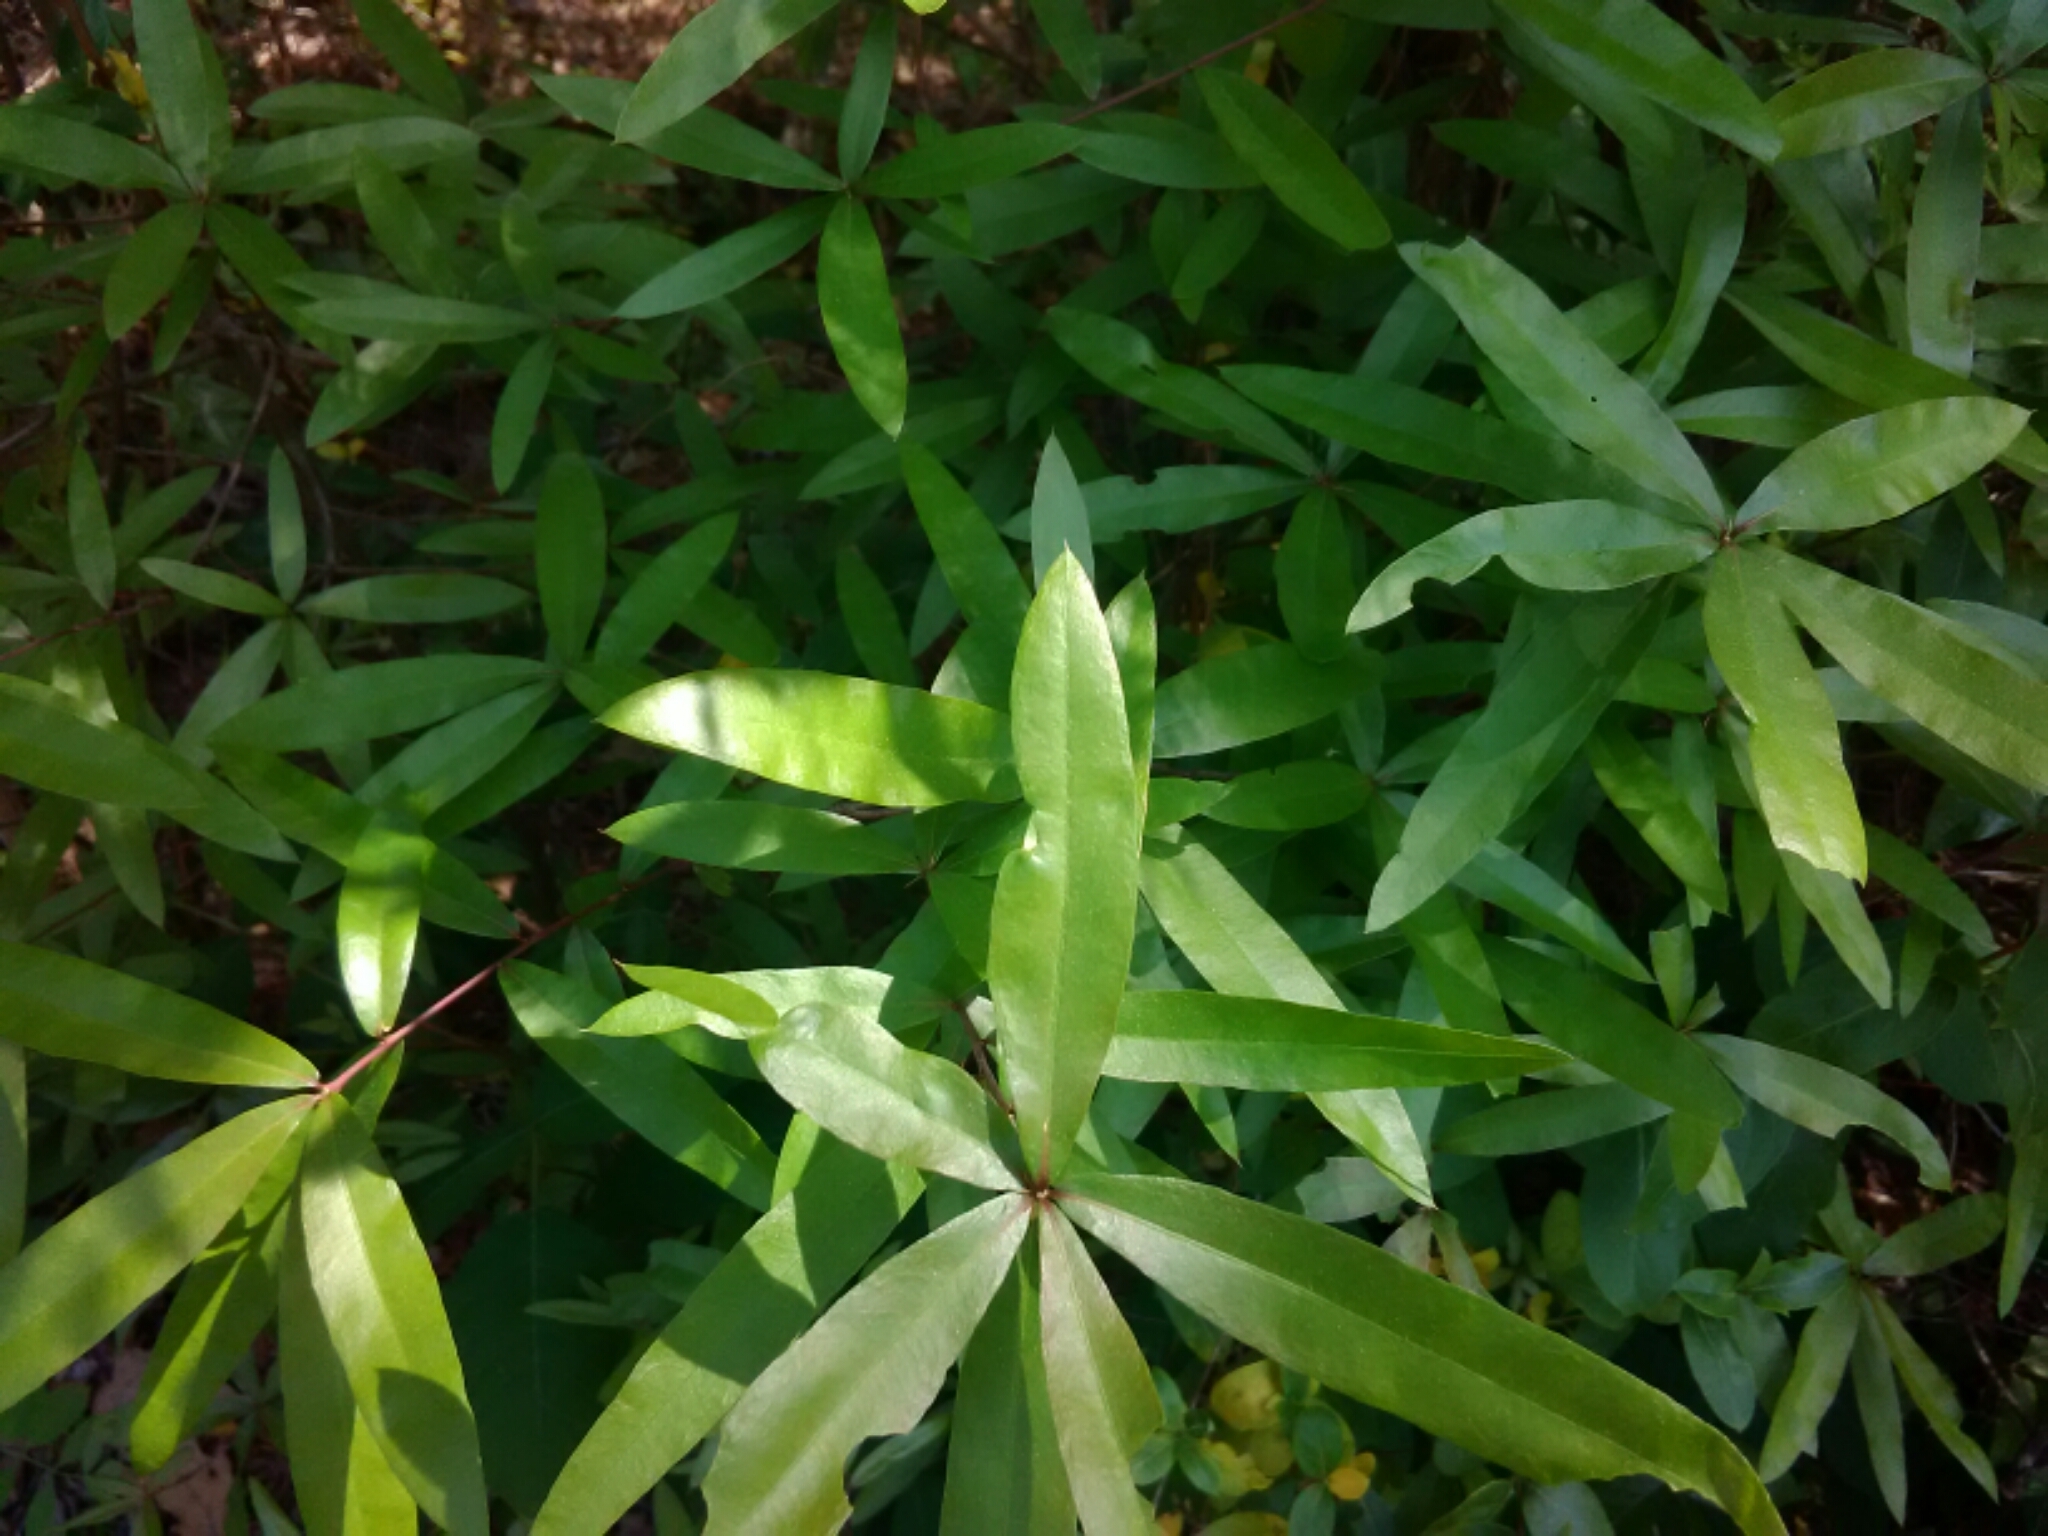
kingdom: Plantae
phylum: Tracheophyta
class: Magnoliopsida
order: Fagales
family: Fagaceae
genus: Quercus
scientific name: Quercus phellos
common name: Willow oak
